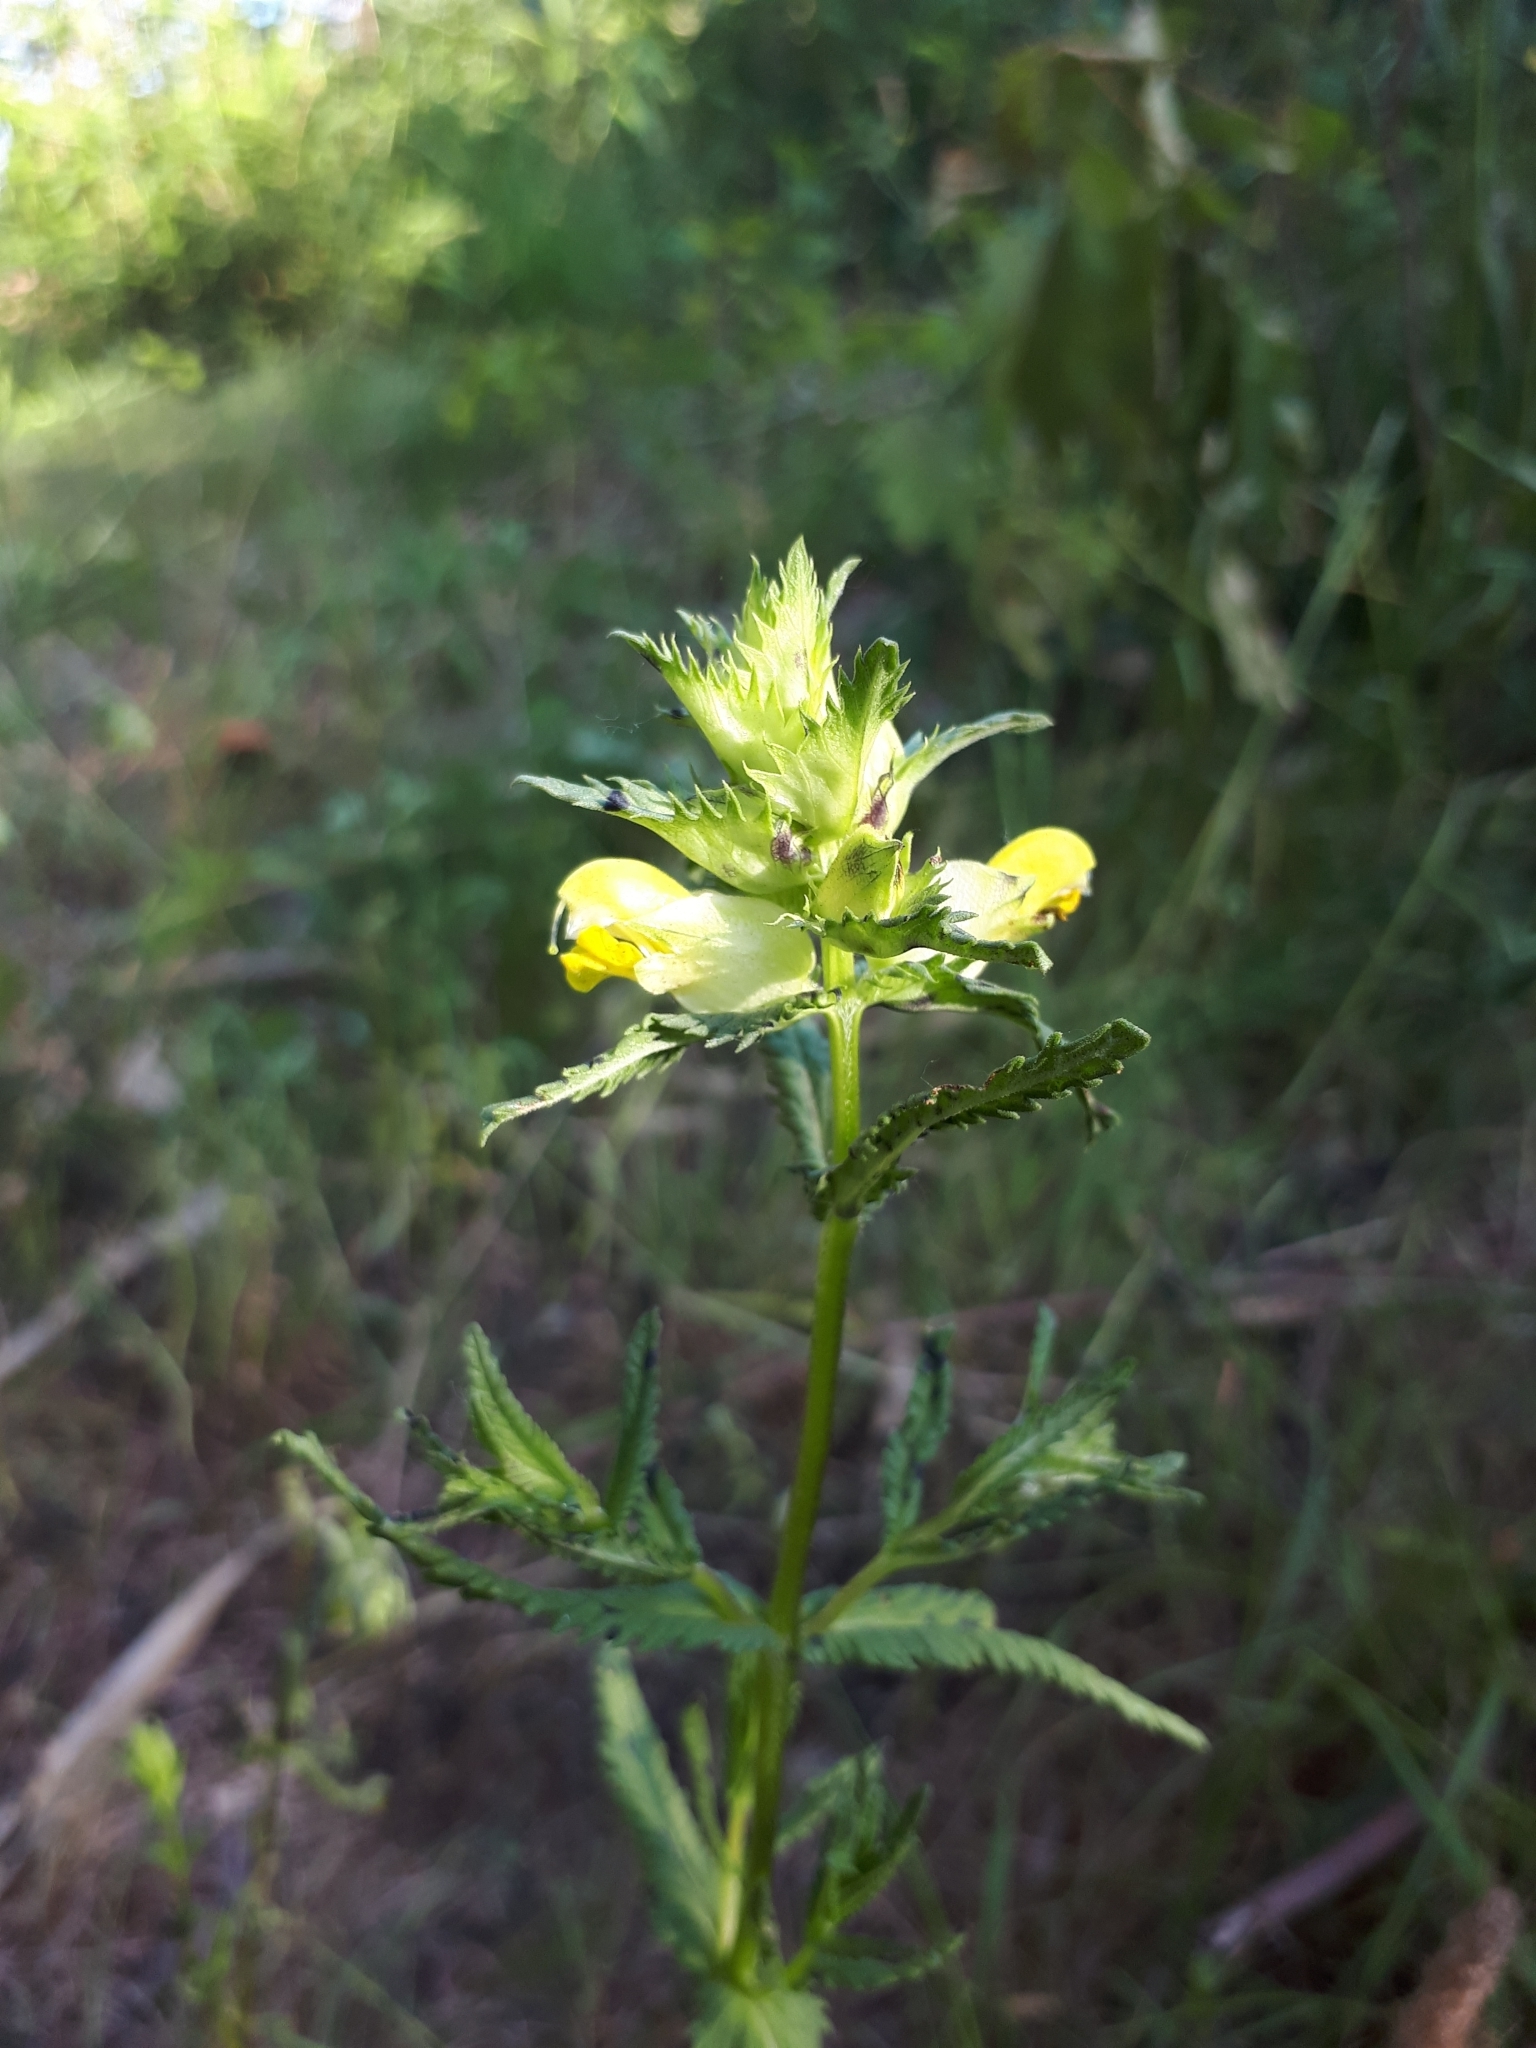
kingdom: Plantae
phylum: Tracheophyta
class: Magnoliopsida
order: Lamiales
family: Orobanchaceae
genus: Rhinanthus
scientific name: Rhinanthus serotinus
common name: Late-flowering yellow rattle
